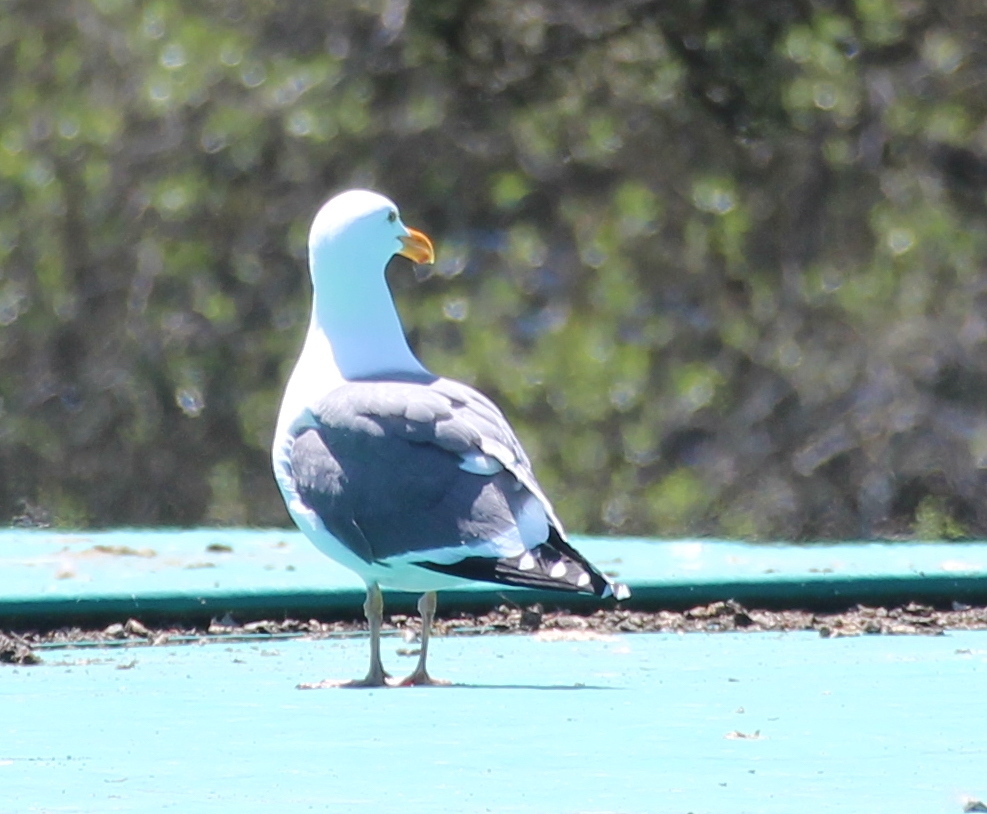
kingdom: Animalia
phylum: Chordata
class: Aves
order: Charadriiformes
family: Laridae
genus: Larus
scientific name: Larus occidentalis
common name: Western gull
